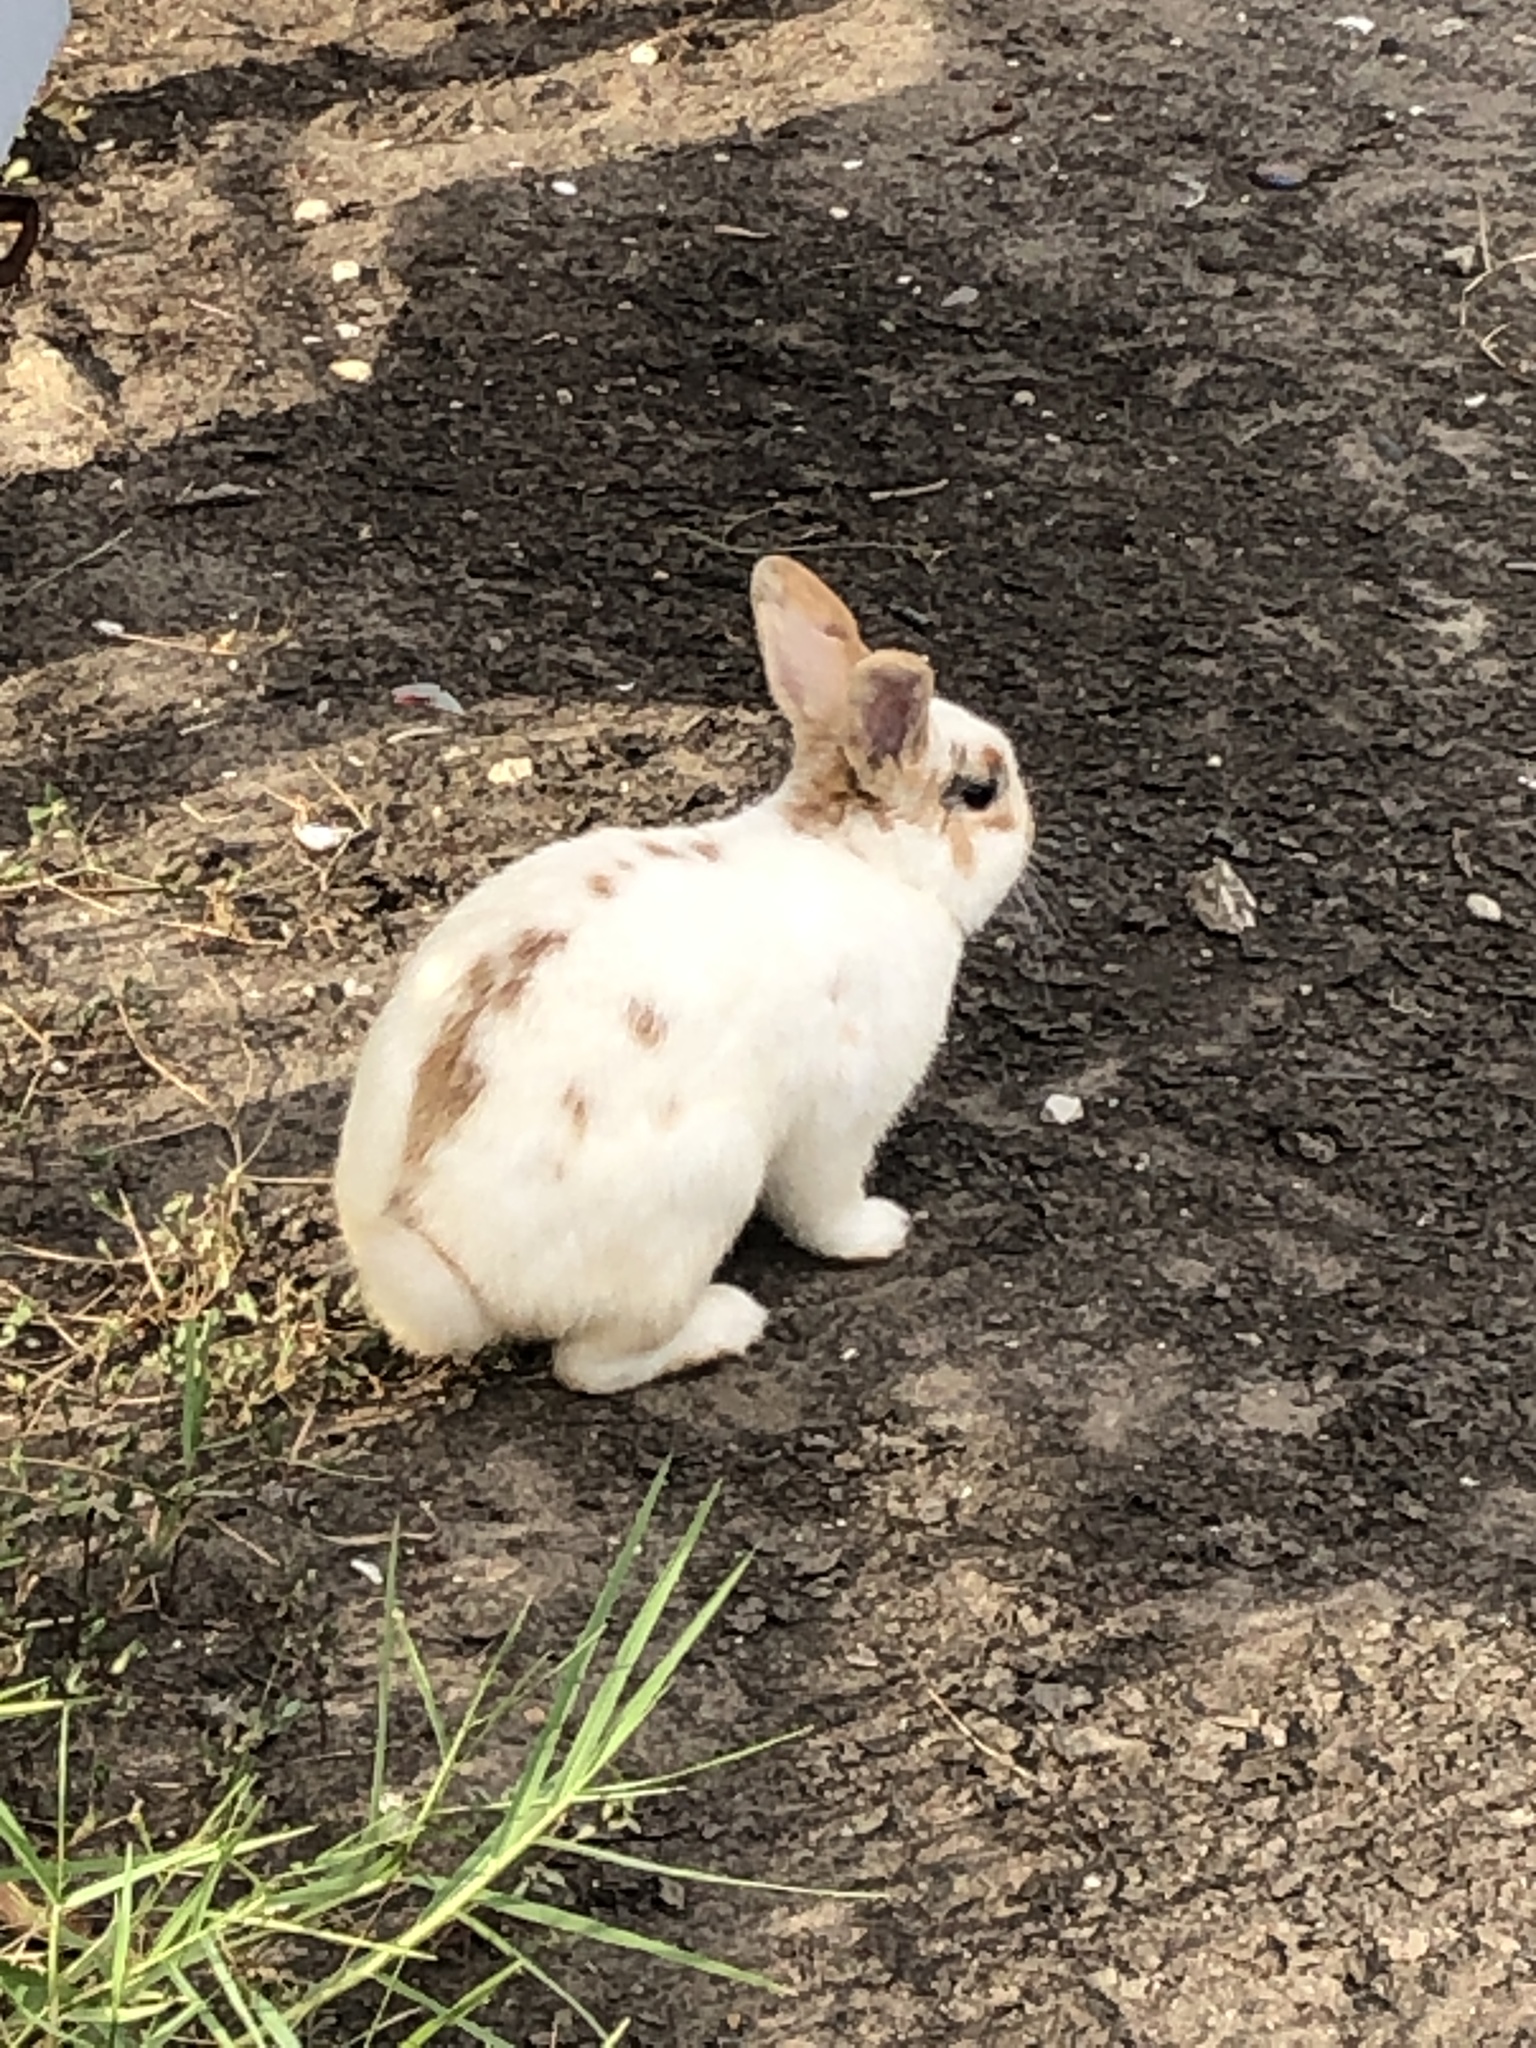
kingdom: Animalia
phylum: Chordata
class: Mammalia
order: Lagomorpha
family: Leporidae
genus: Oryctolagus
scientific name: Oryctolagus cuniculus
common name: European rabbit
